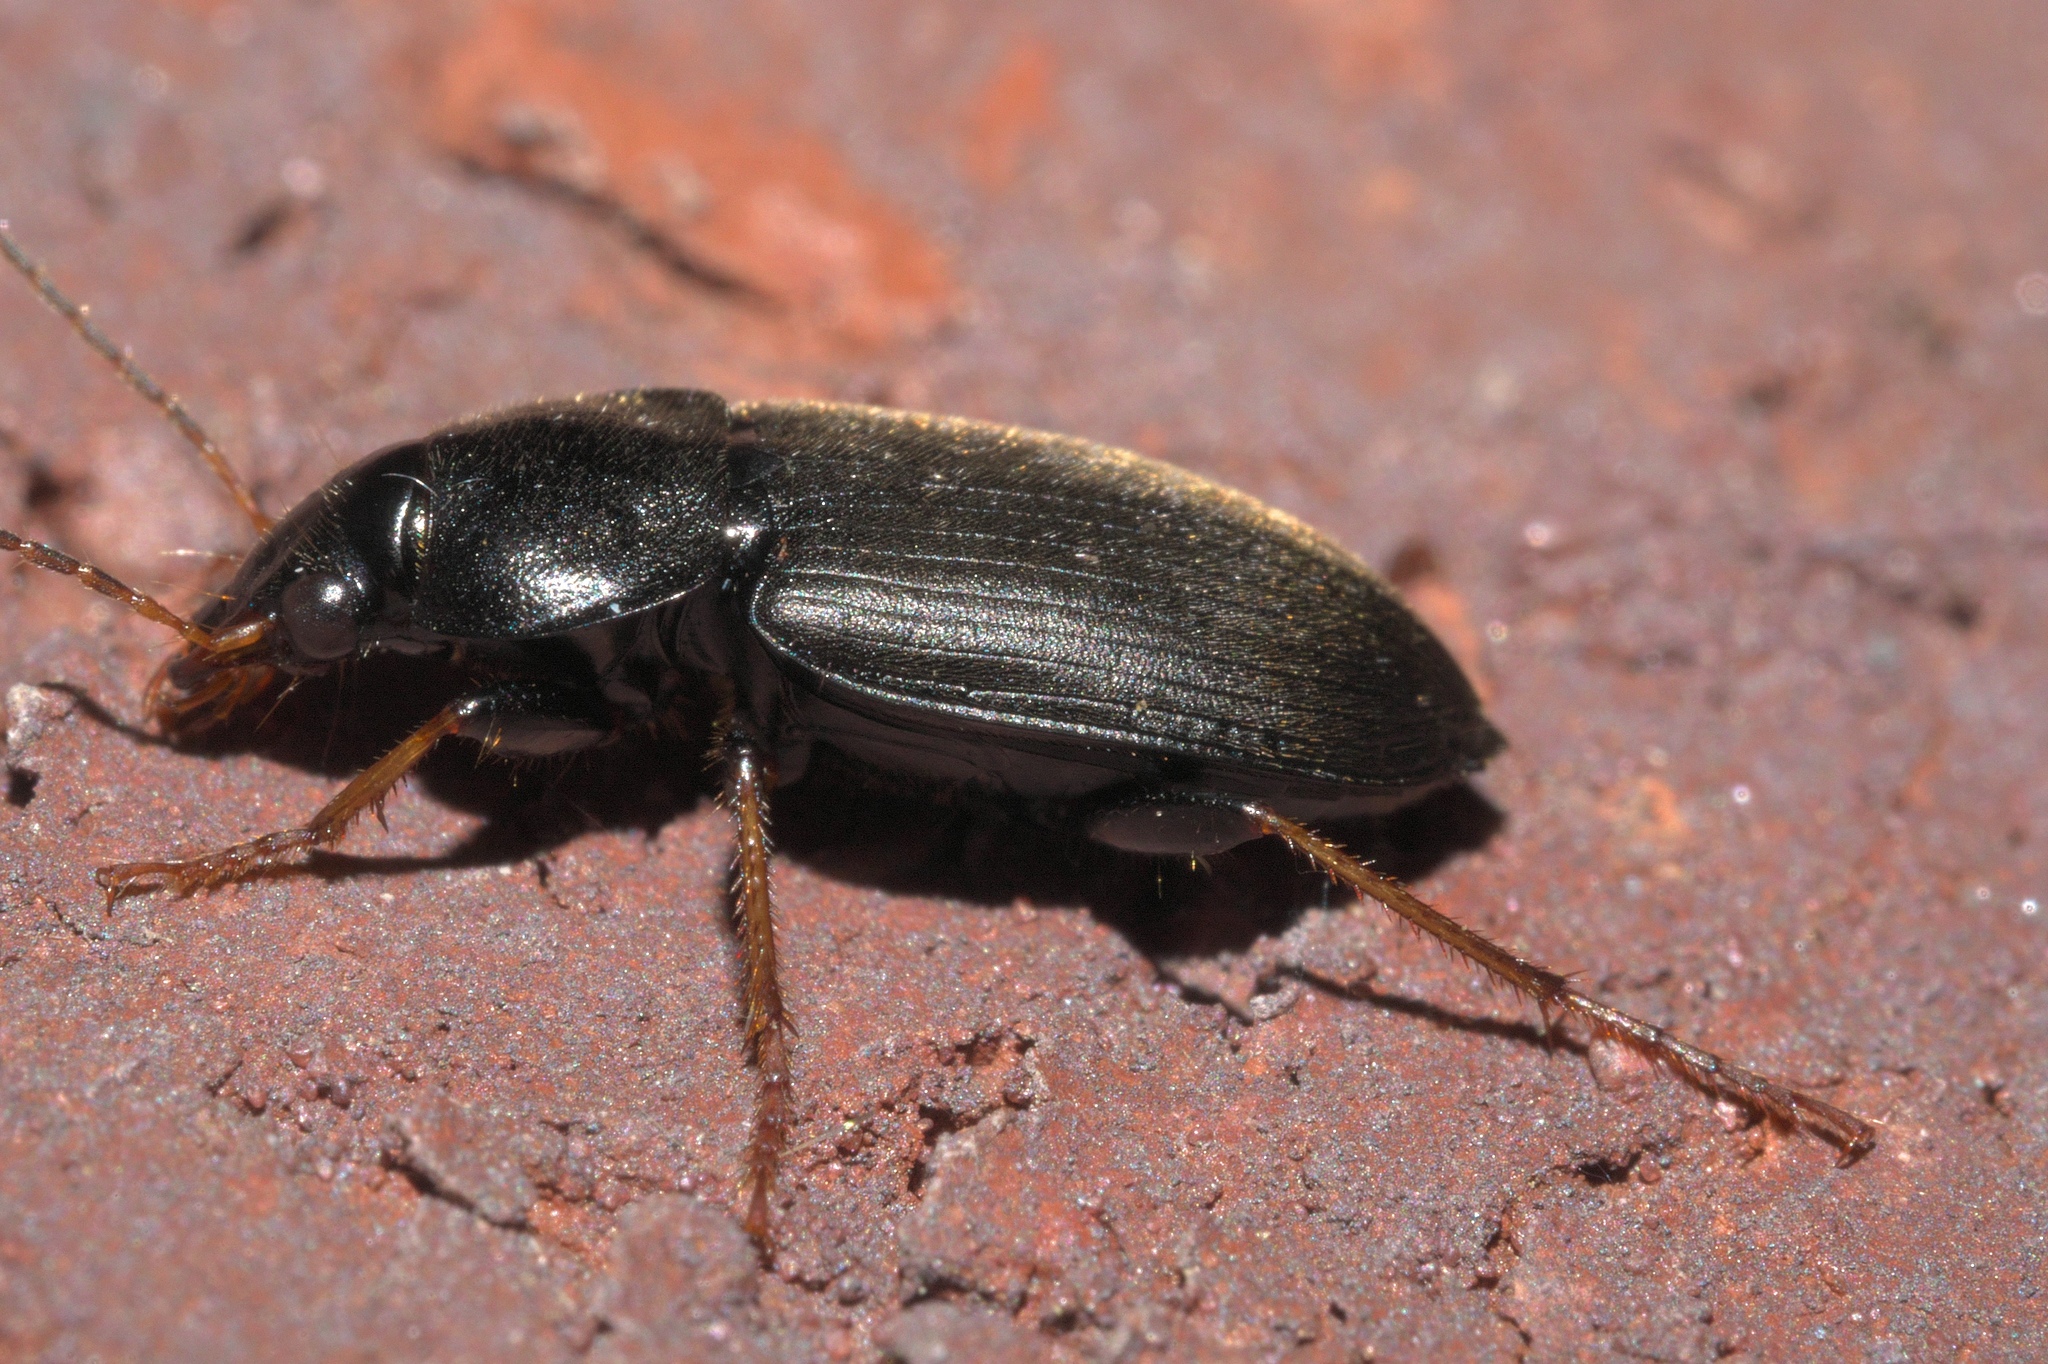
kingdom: Animalia
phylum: Arthropoda
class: Insecta
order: Coleoptera
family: Carabidae
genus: Amphasia
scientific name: Amphasia sericea
